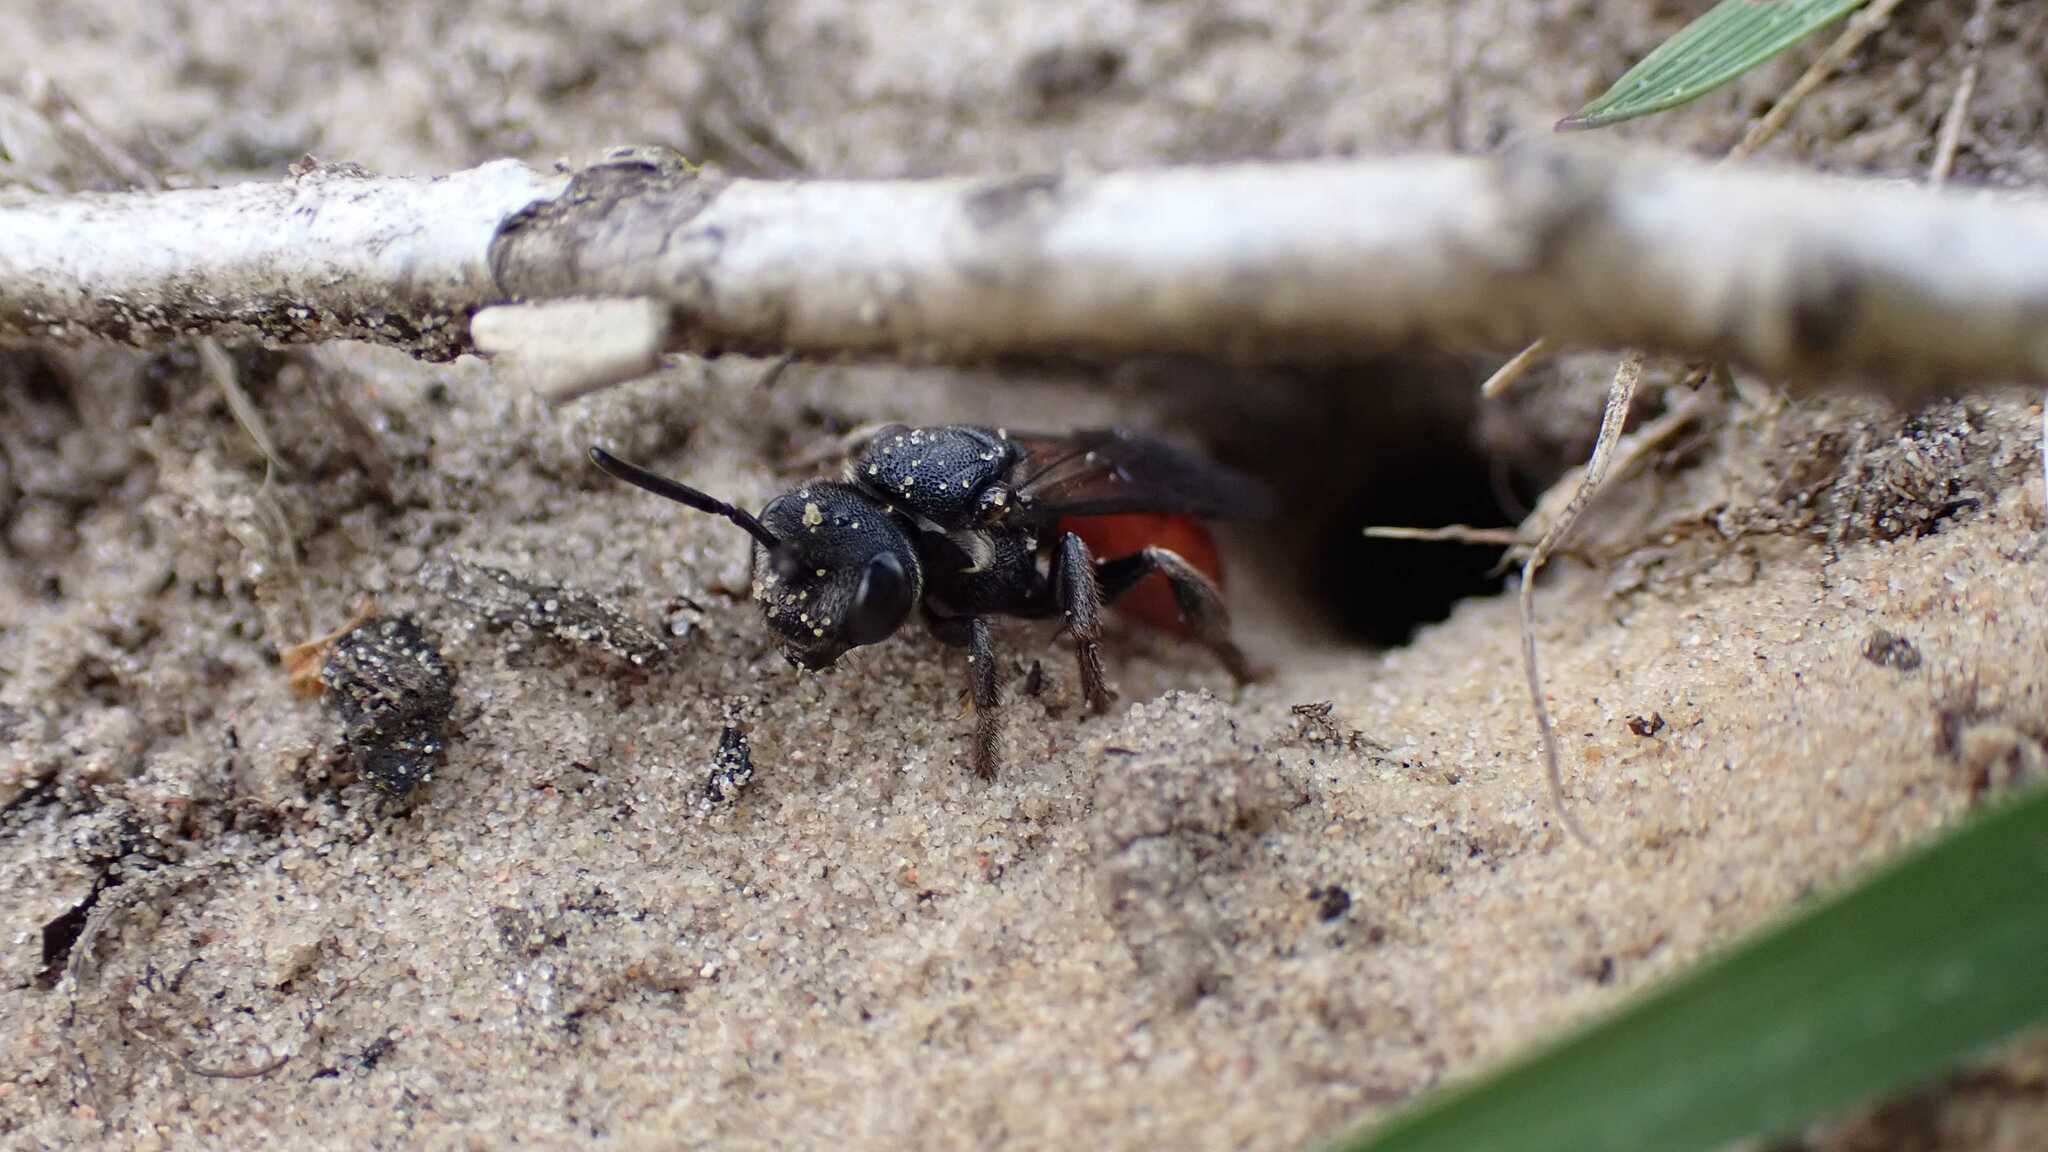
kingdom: Animalia
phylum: Arthropoda
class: Insecta
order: Hymenoptera
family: Halictidae
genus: Sphecodes
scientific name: Sphecodes albilabris
